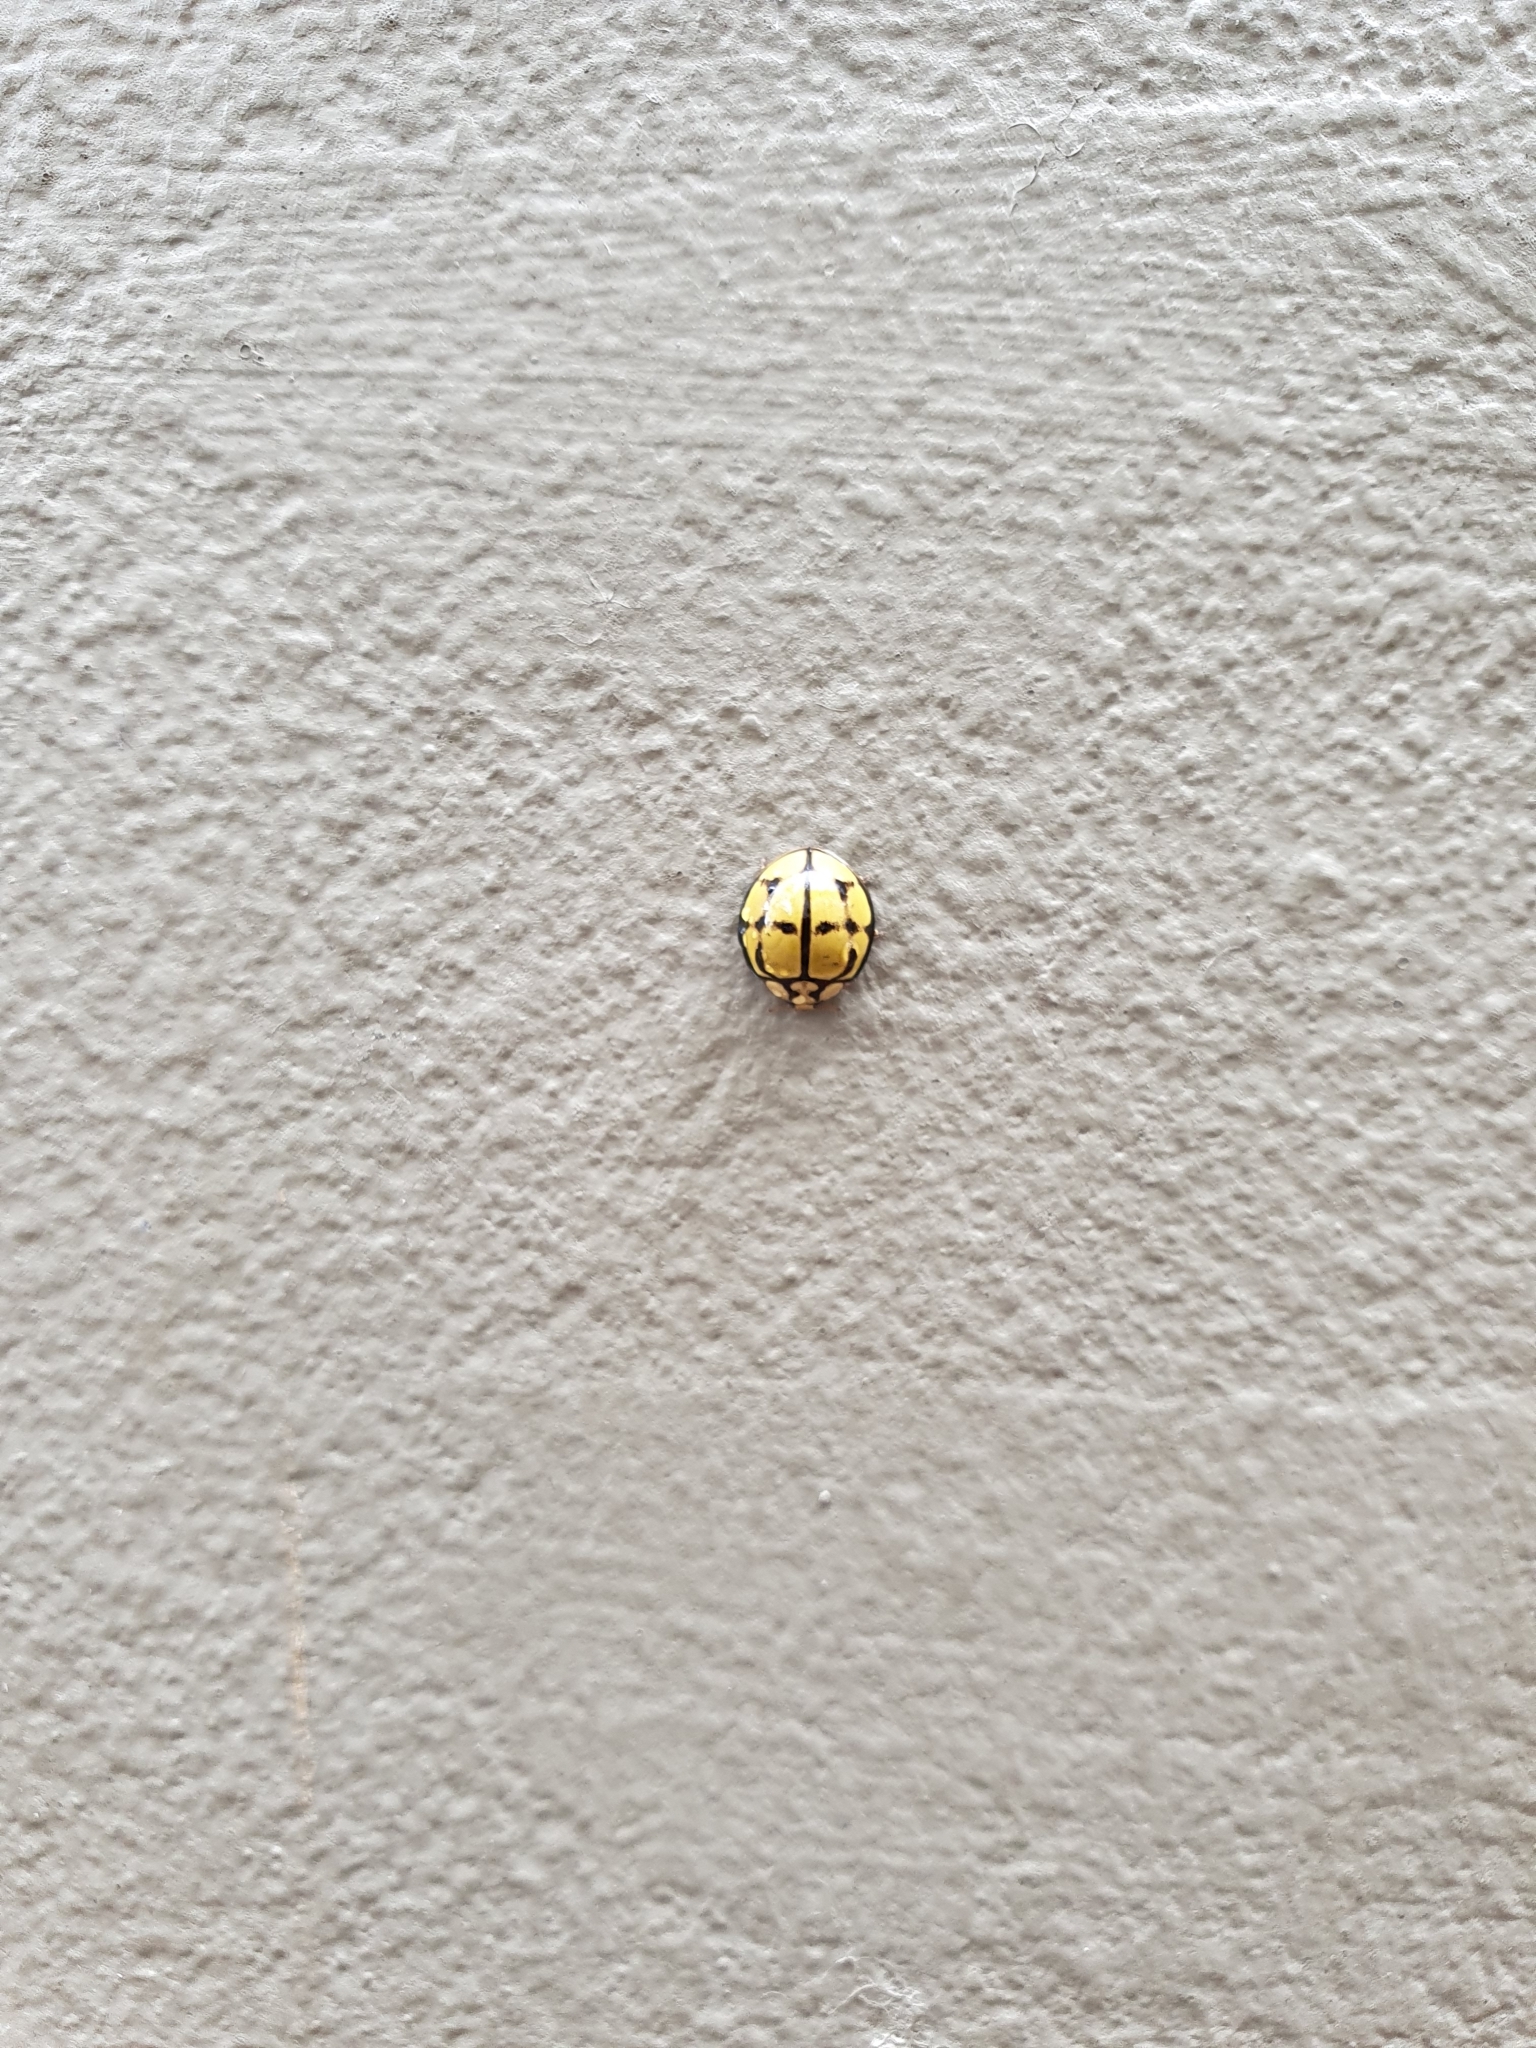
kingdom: Animalia
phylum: Arthropoda
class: Insecta
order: Coleoptera
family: Coccinellidae
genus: Harmonia
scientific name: Harmonia
